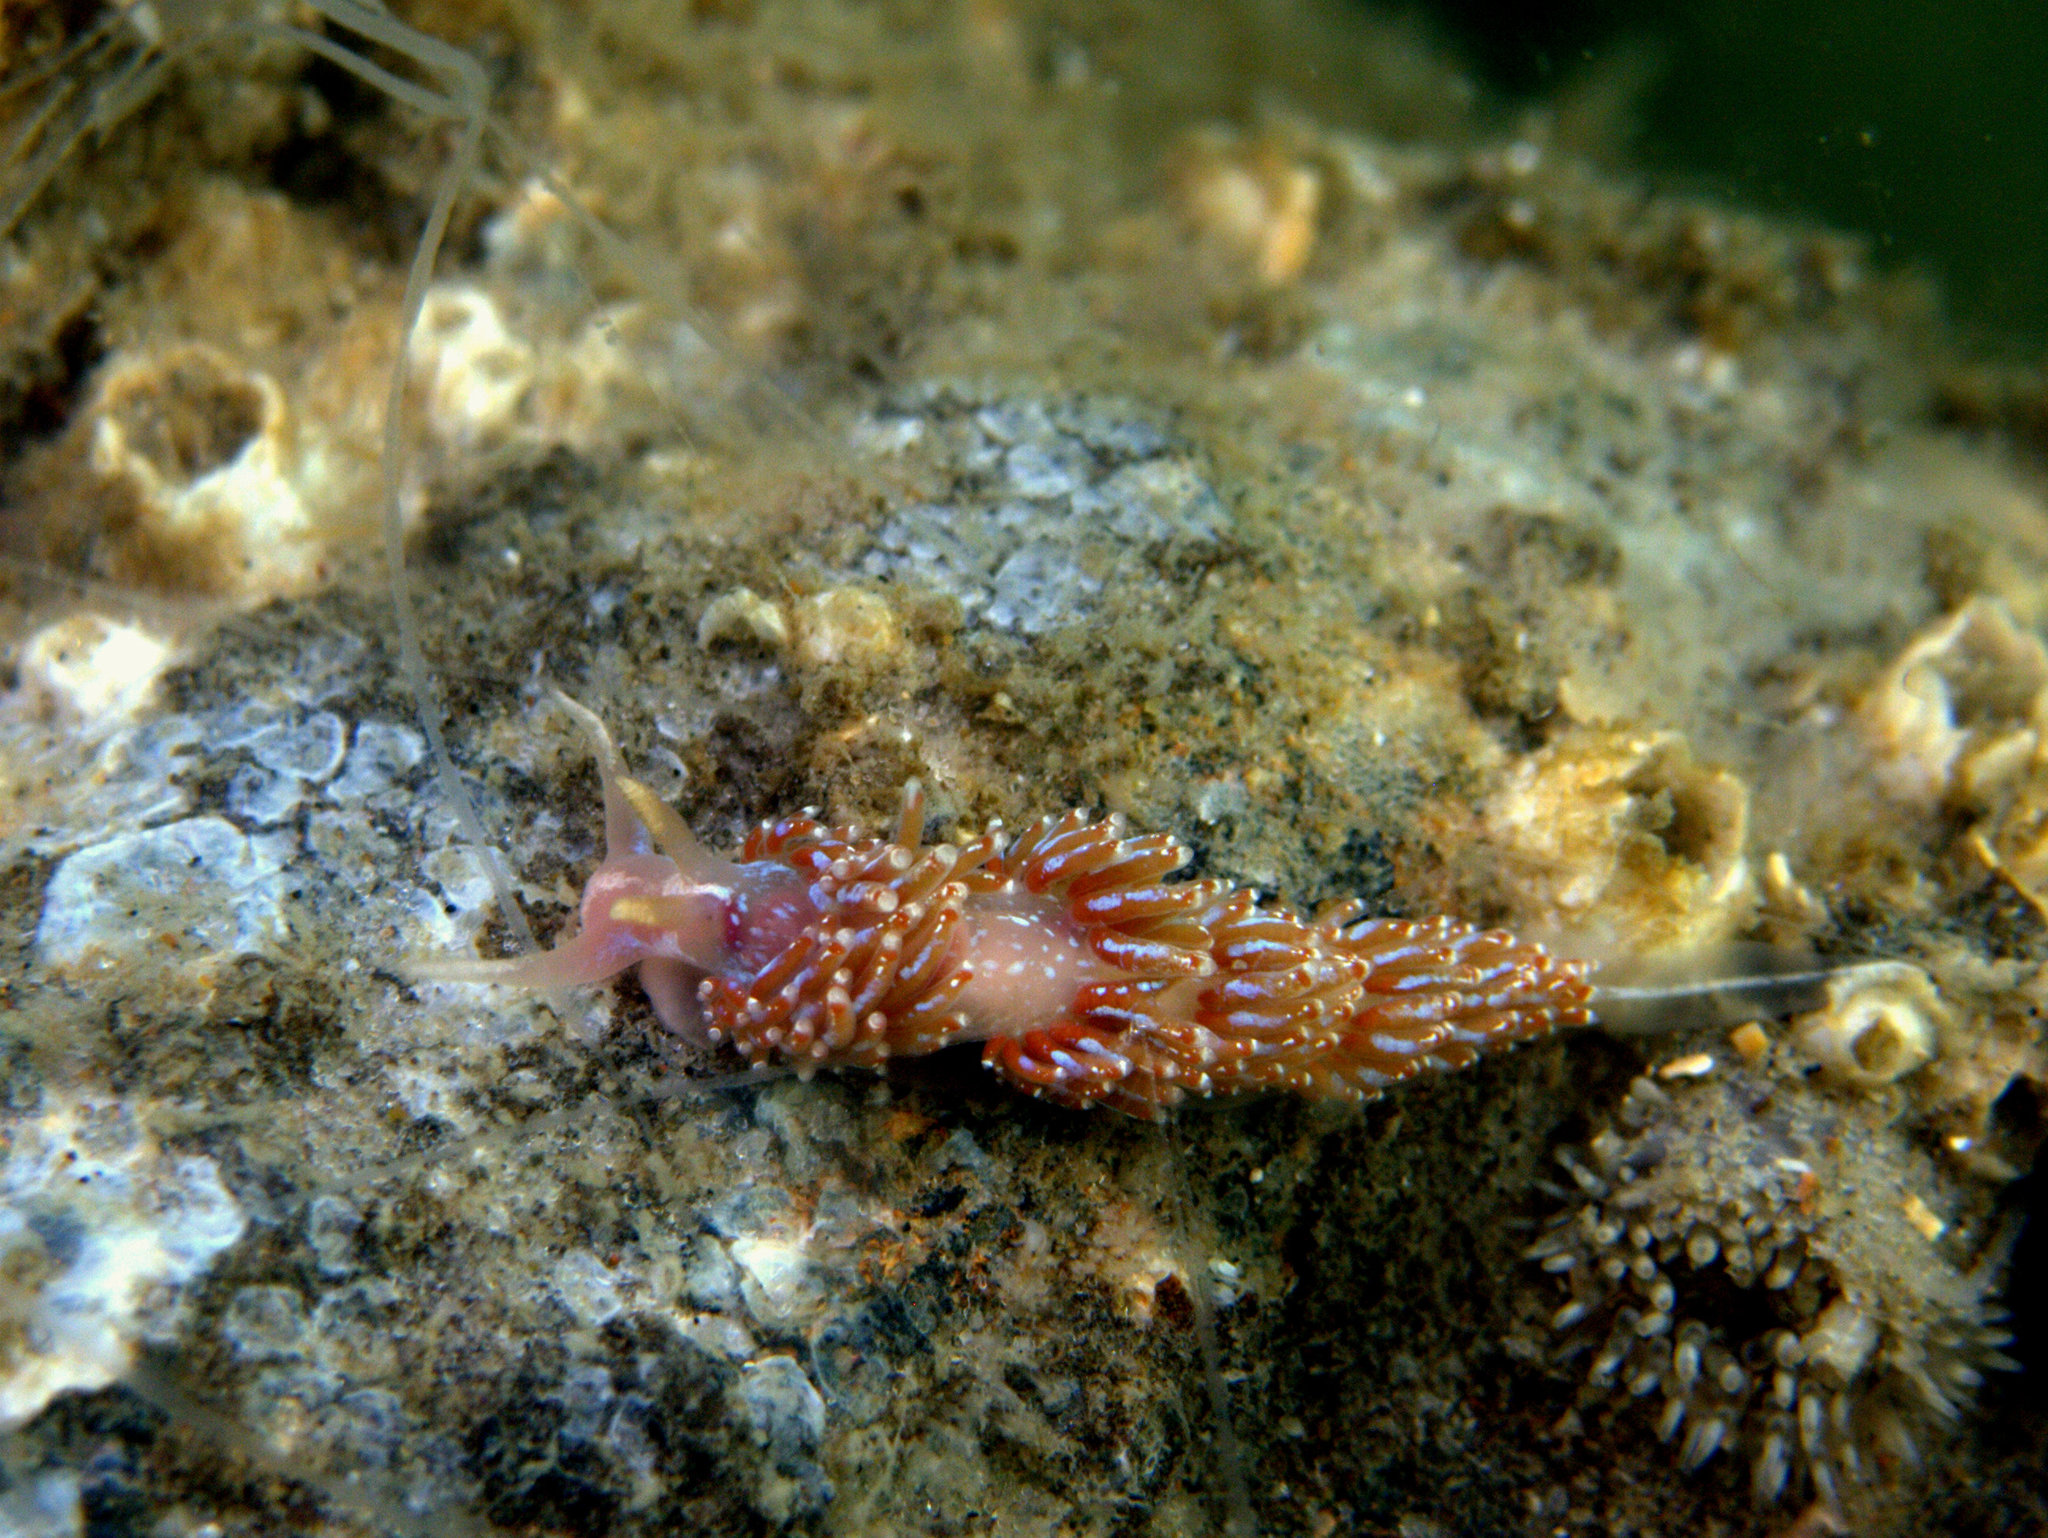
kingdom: Animalia
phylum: Mollusca
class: Gastropoda
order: Nudibranchia
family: Facelinidae
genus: Facelina
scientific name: Facelina auriculata
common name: Slender facelina
